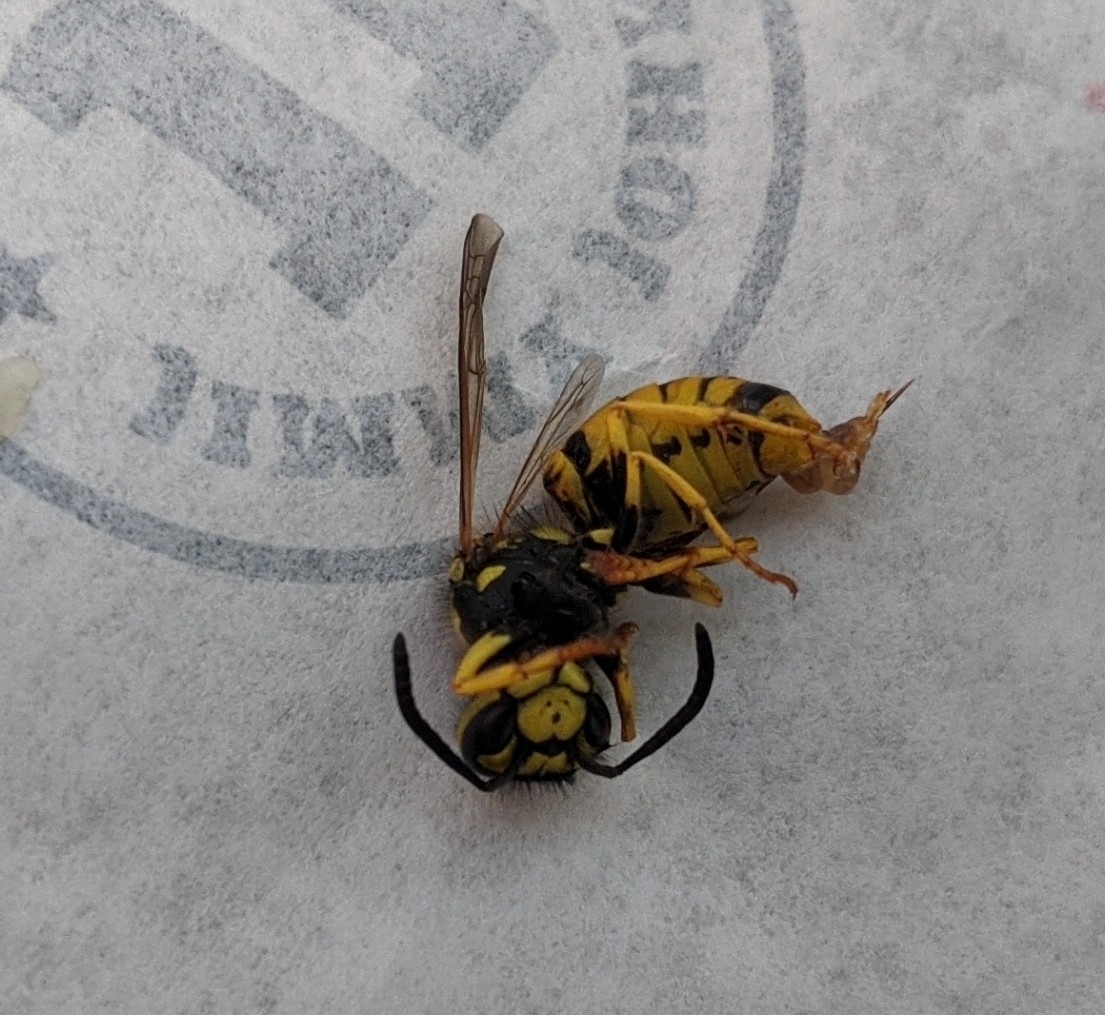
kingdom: Animalia
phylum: Arthropoda
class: Insecta
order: Hymenoptera
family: Vespidae
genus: Vespula
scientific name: Vespula germanica
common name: German wasp
